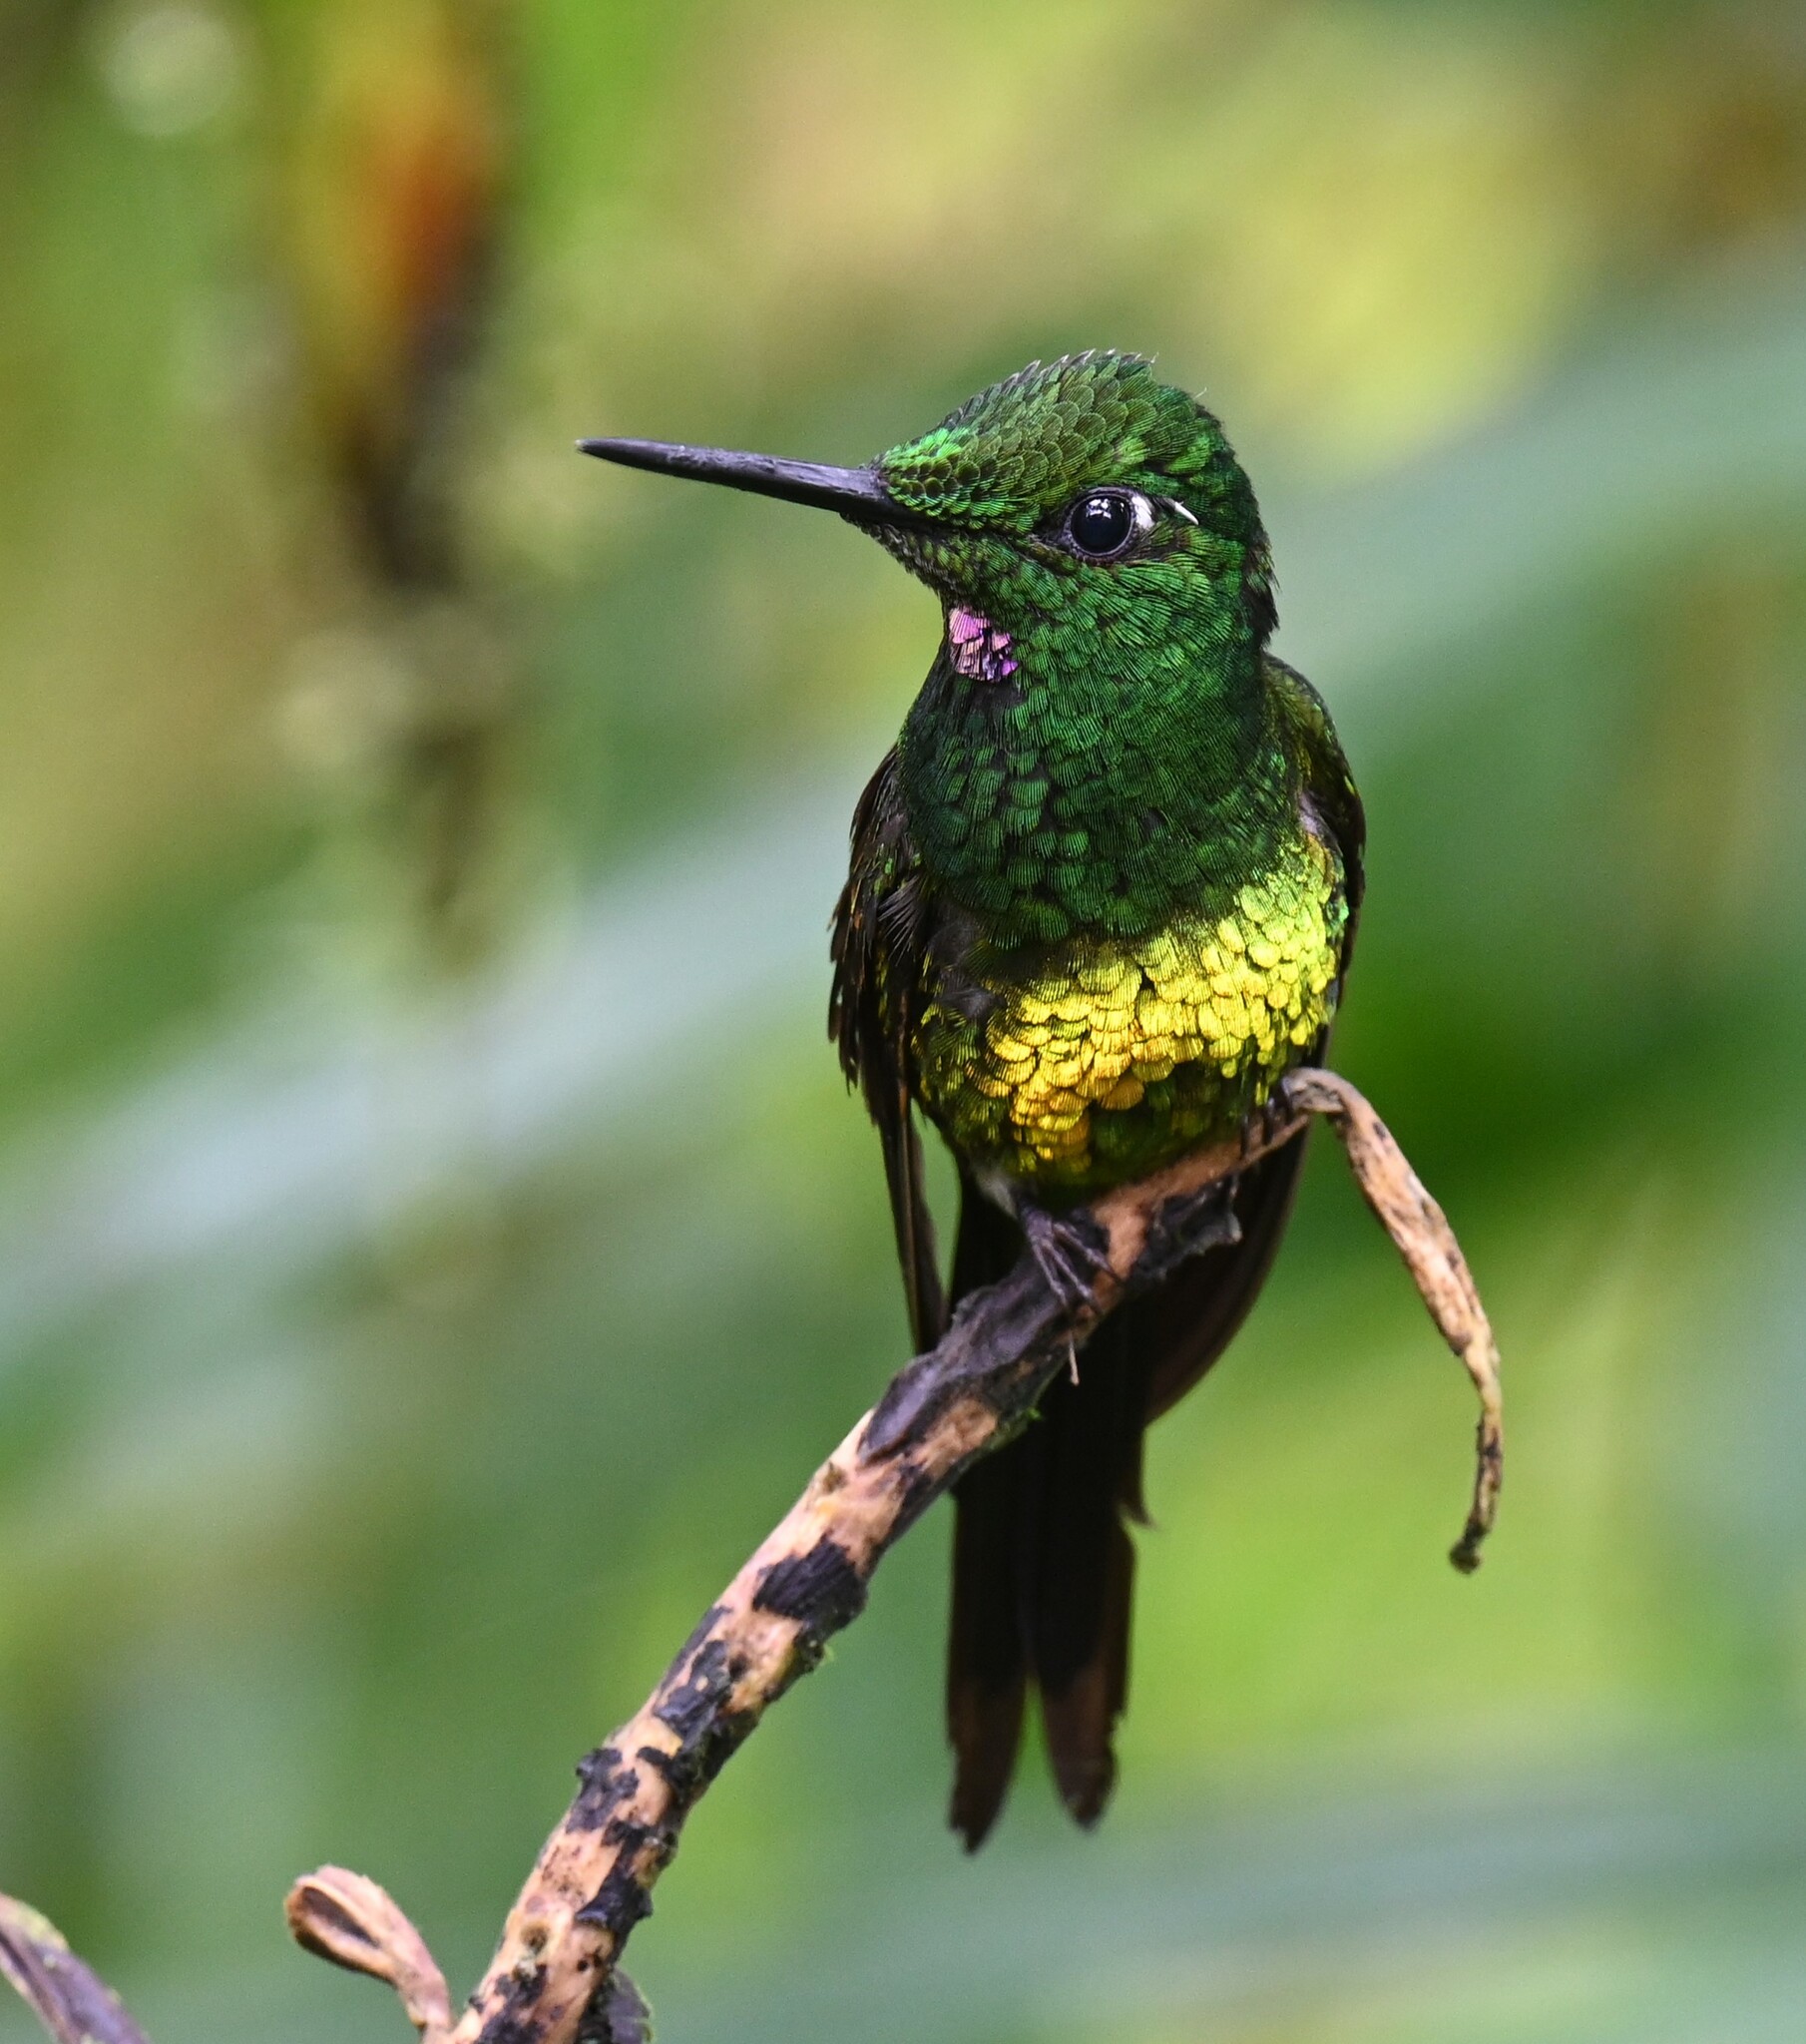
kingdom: Animalia
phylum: Chordata
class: Aves
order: Apodiformes
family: Trochilidae
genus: Heliodoxa
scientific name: Heliodoxa imperatrix
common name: Empress brilliant
